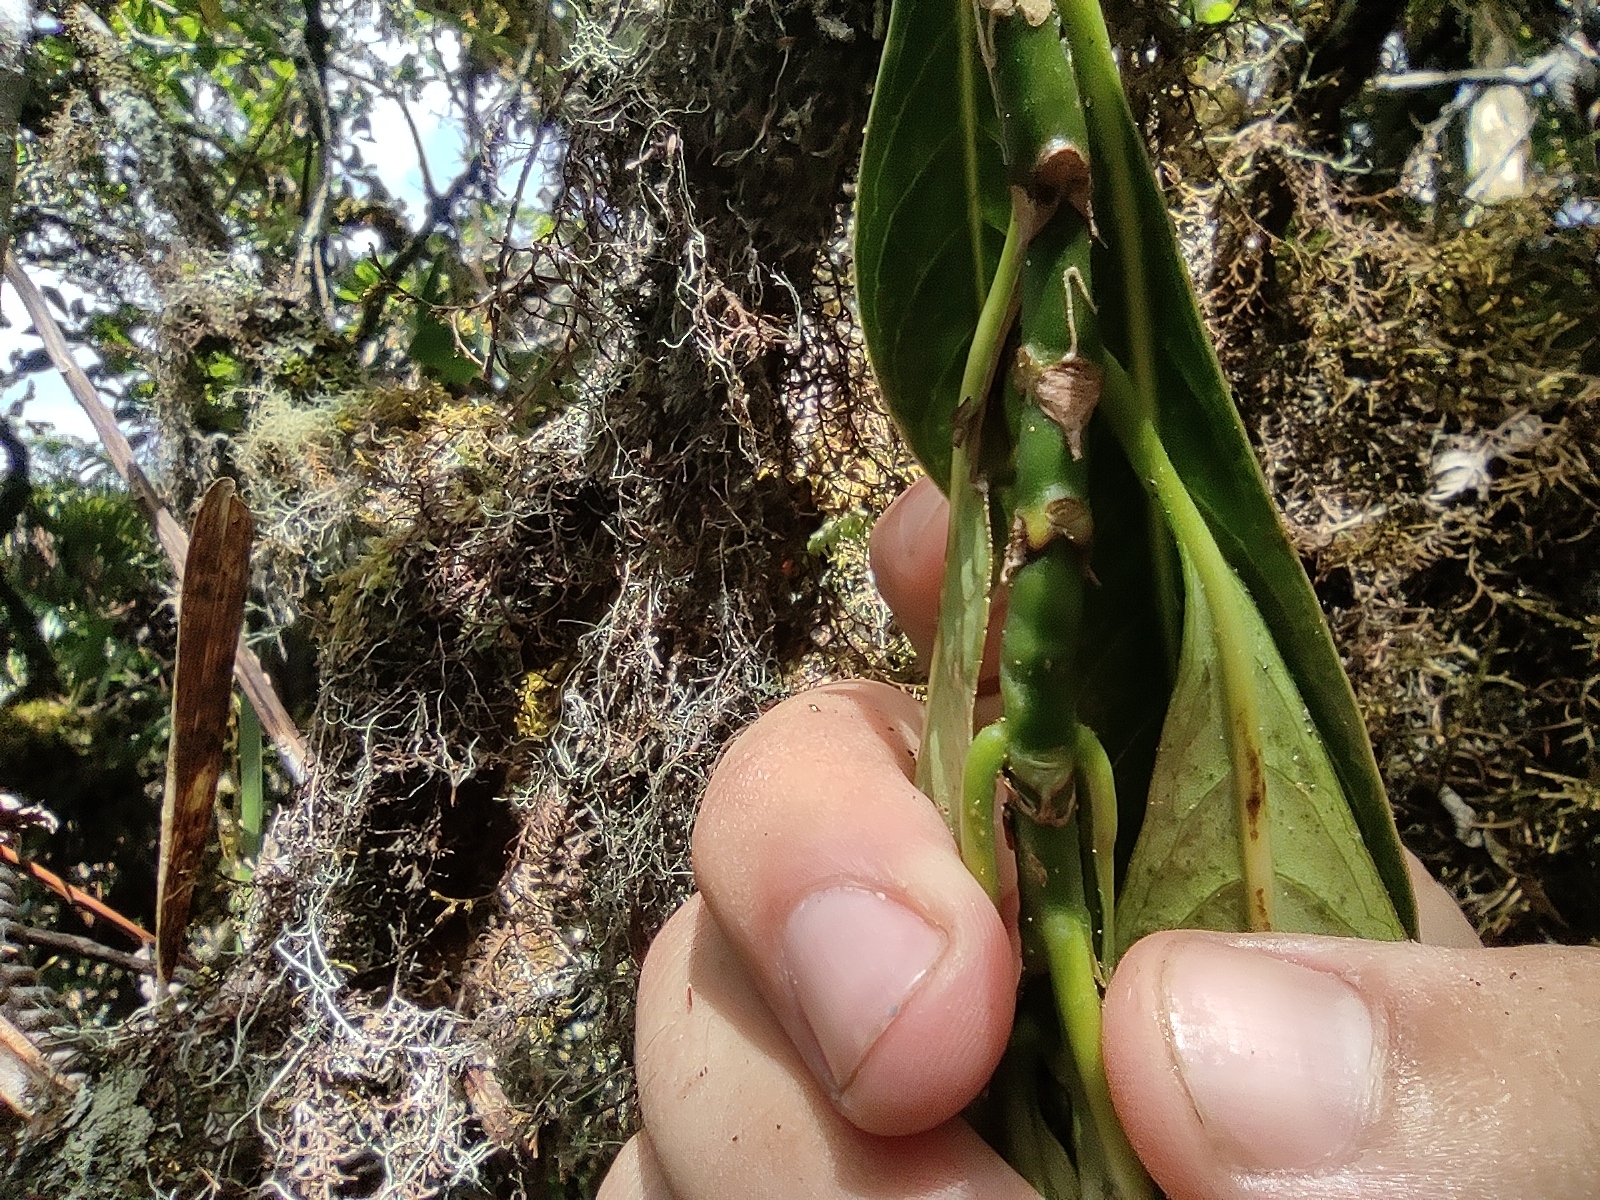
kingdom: Plantae
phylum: Tracheophyta
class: Magnoliopsida
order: Gentianales
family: Rubiaceae
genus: Gaertnera
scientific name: Gaertnera vaginata
